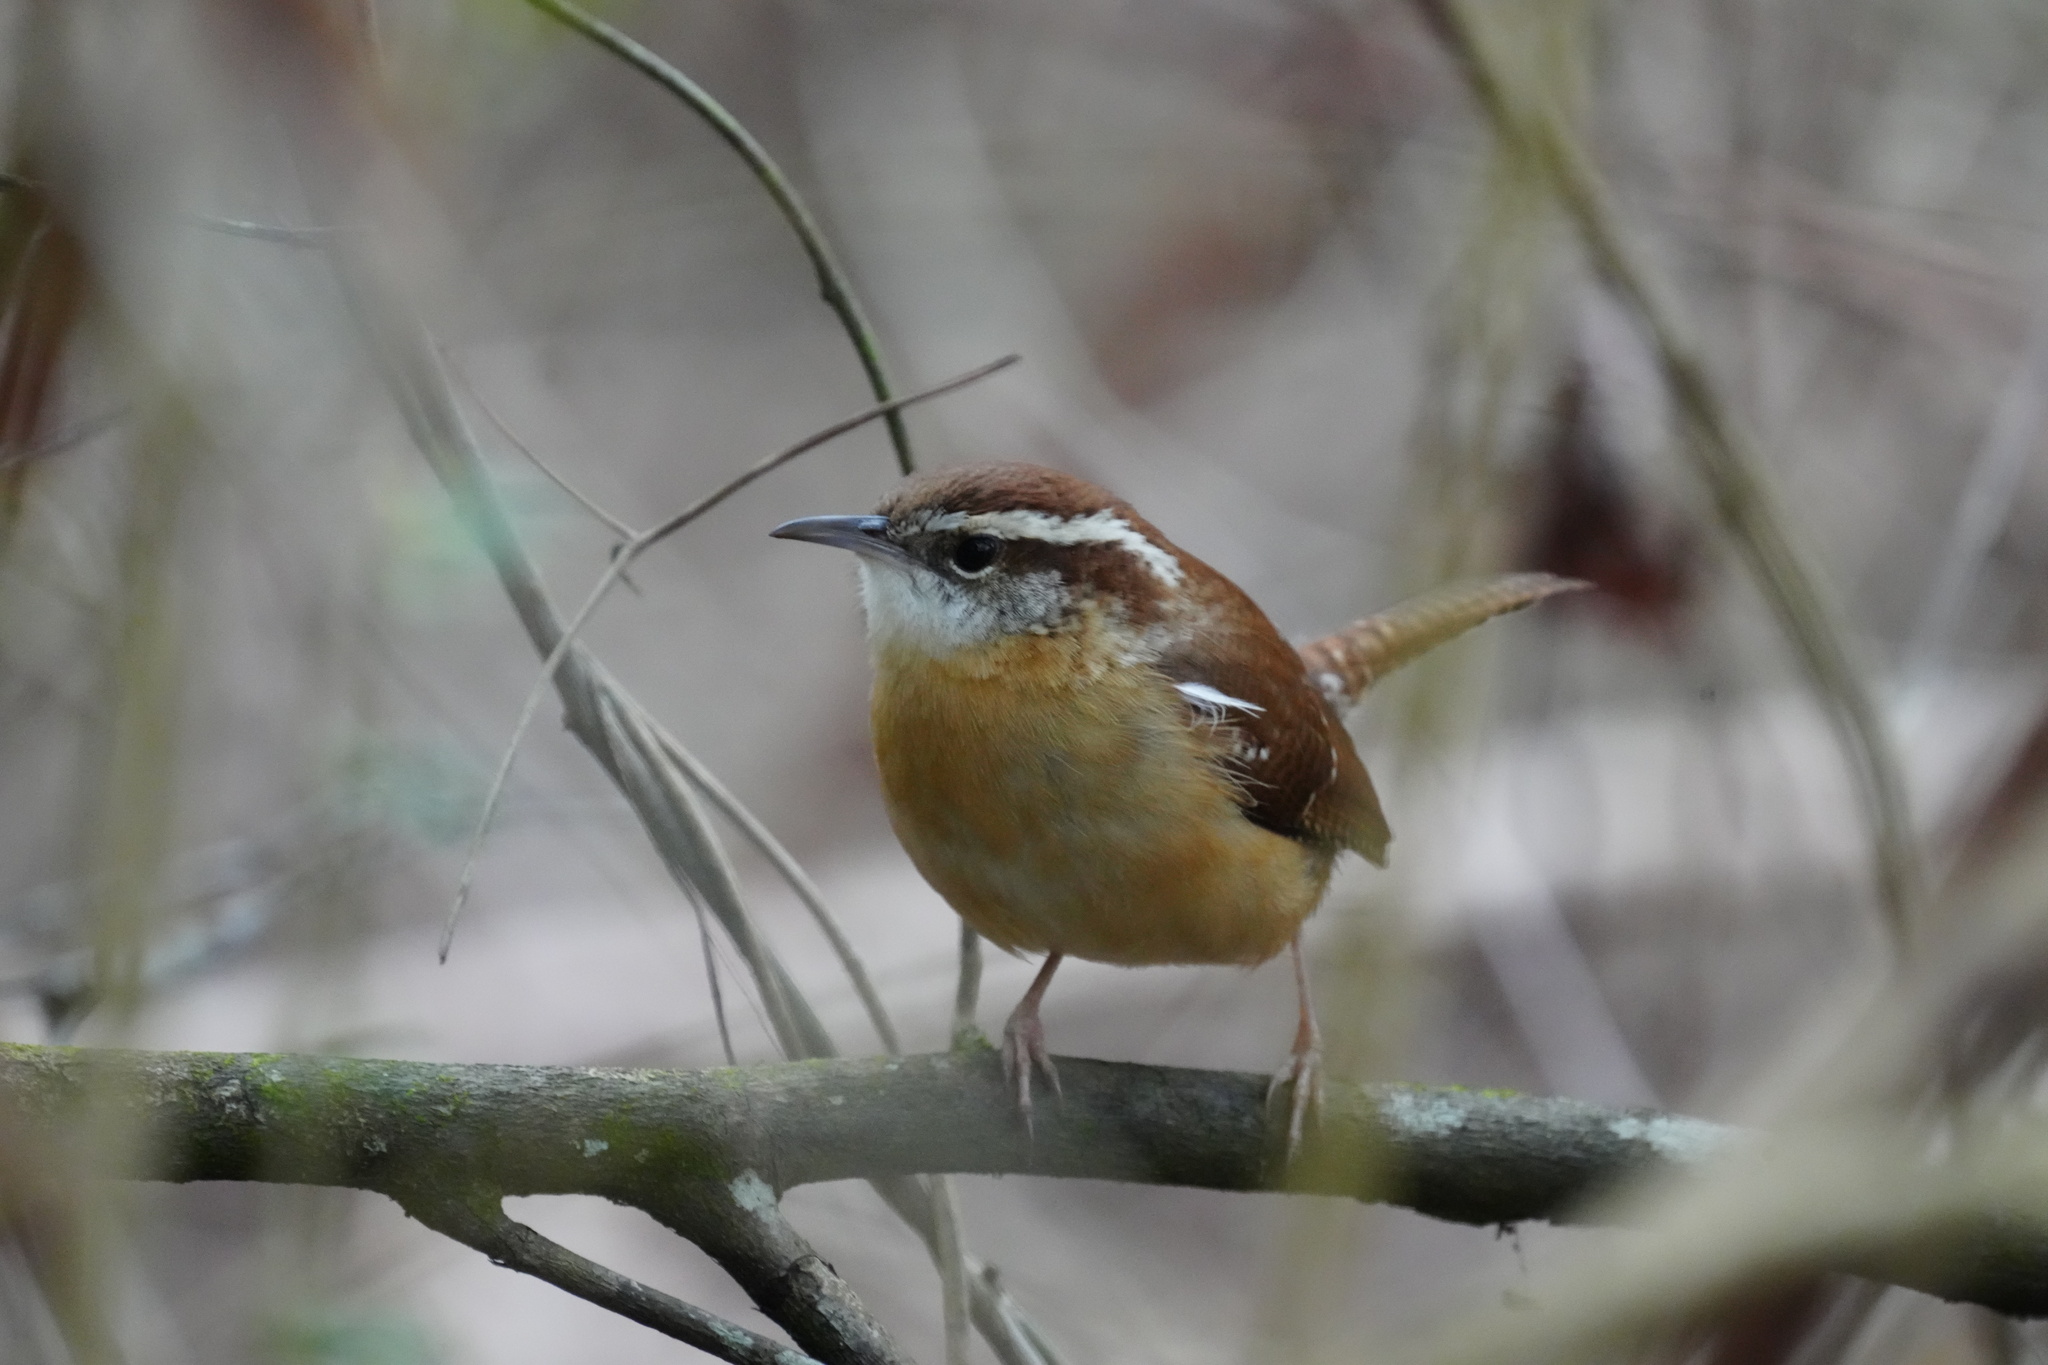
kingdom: Animalia
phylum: Chordata
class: Aves
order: Passeriformes
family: Troglodytidae
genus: Thryothorus
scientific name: Thryothorus ludovicianus
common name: Carolina wren
